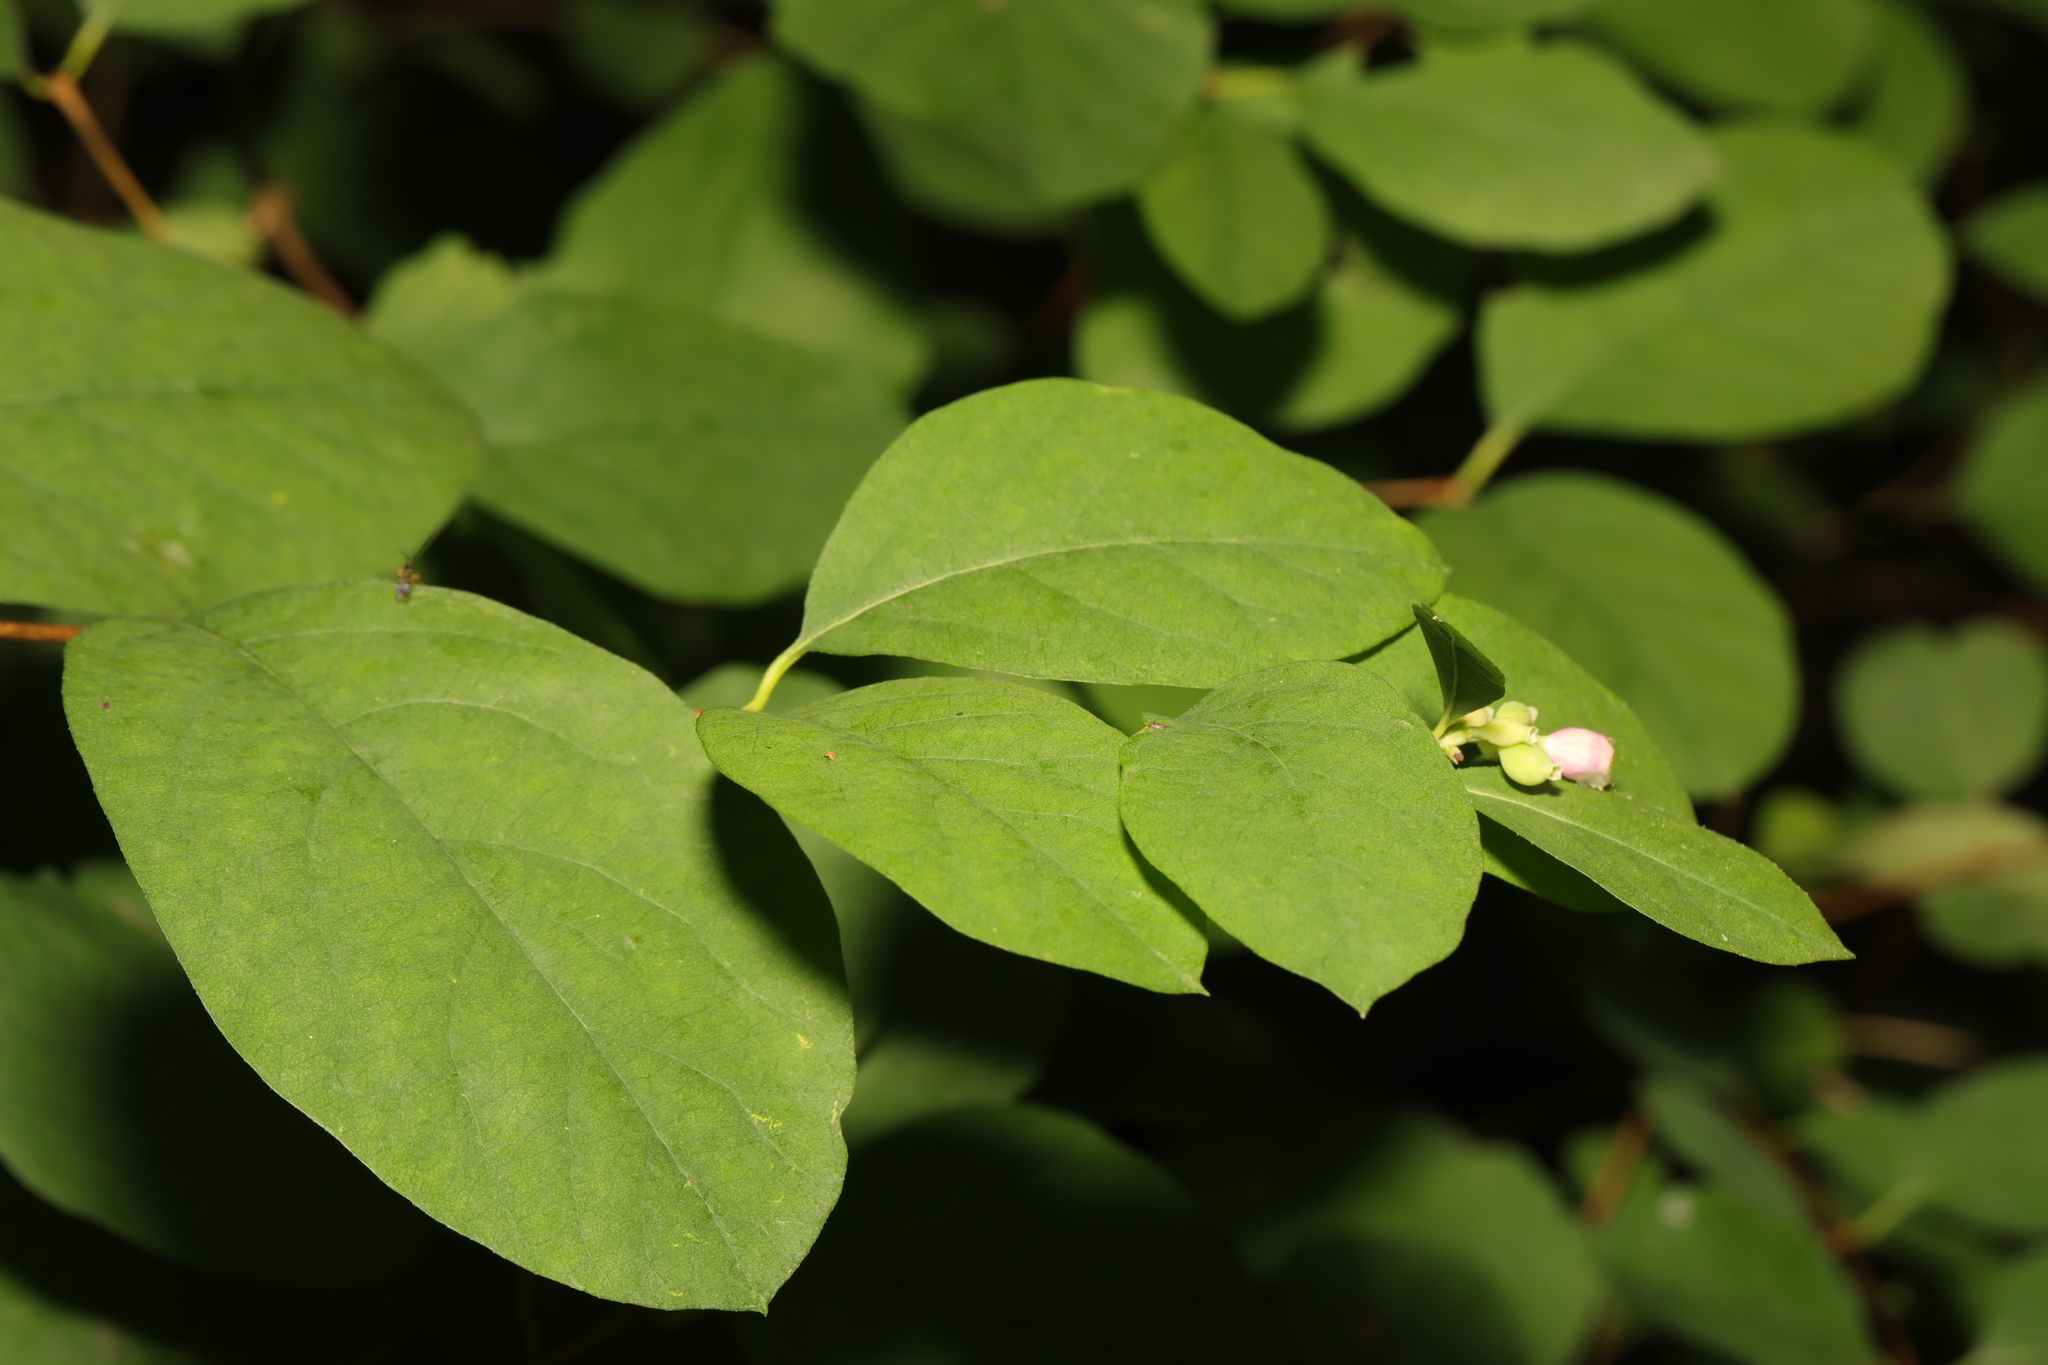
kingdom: Plantae
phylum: Tracheophyta
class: Magnoliopsida
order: Dipsacales
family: Caprifoliaceae
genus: Symphoricarpos
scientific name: Symphoricarpos albus
